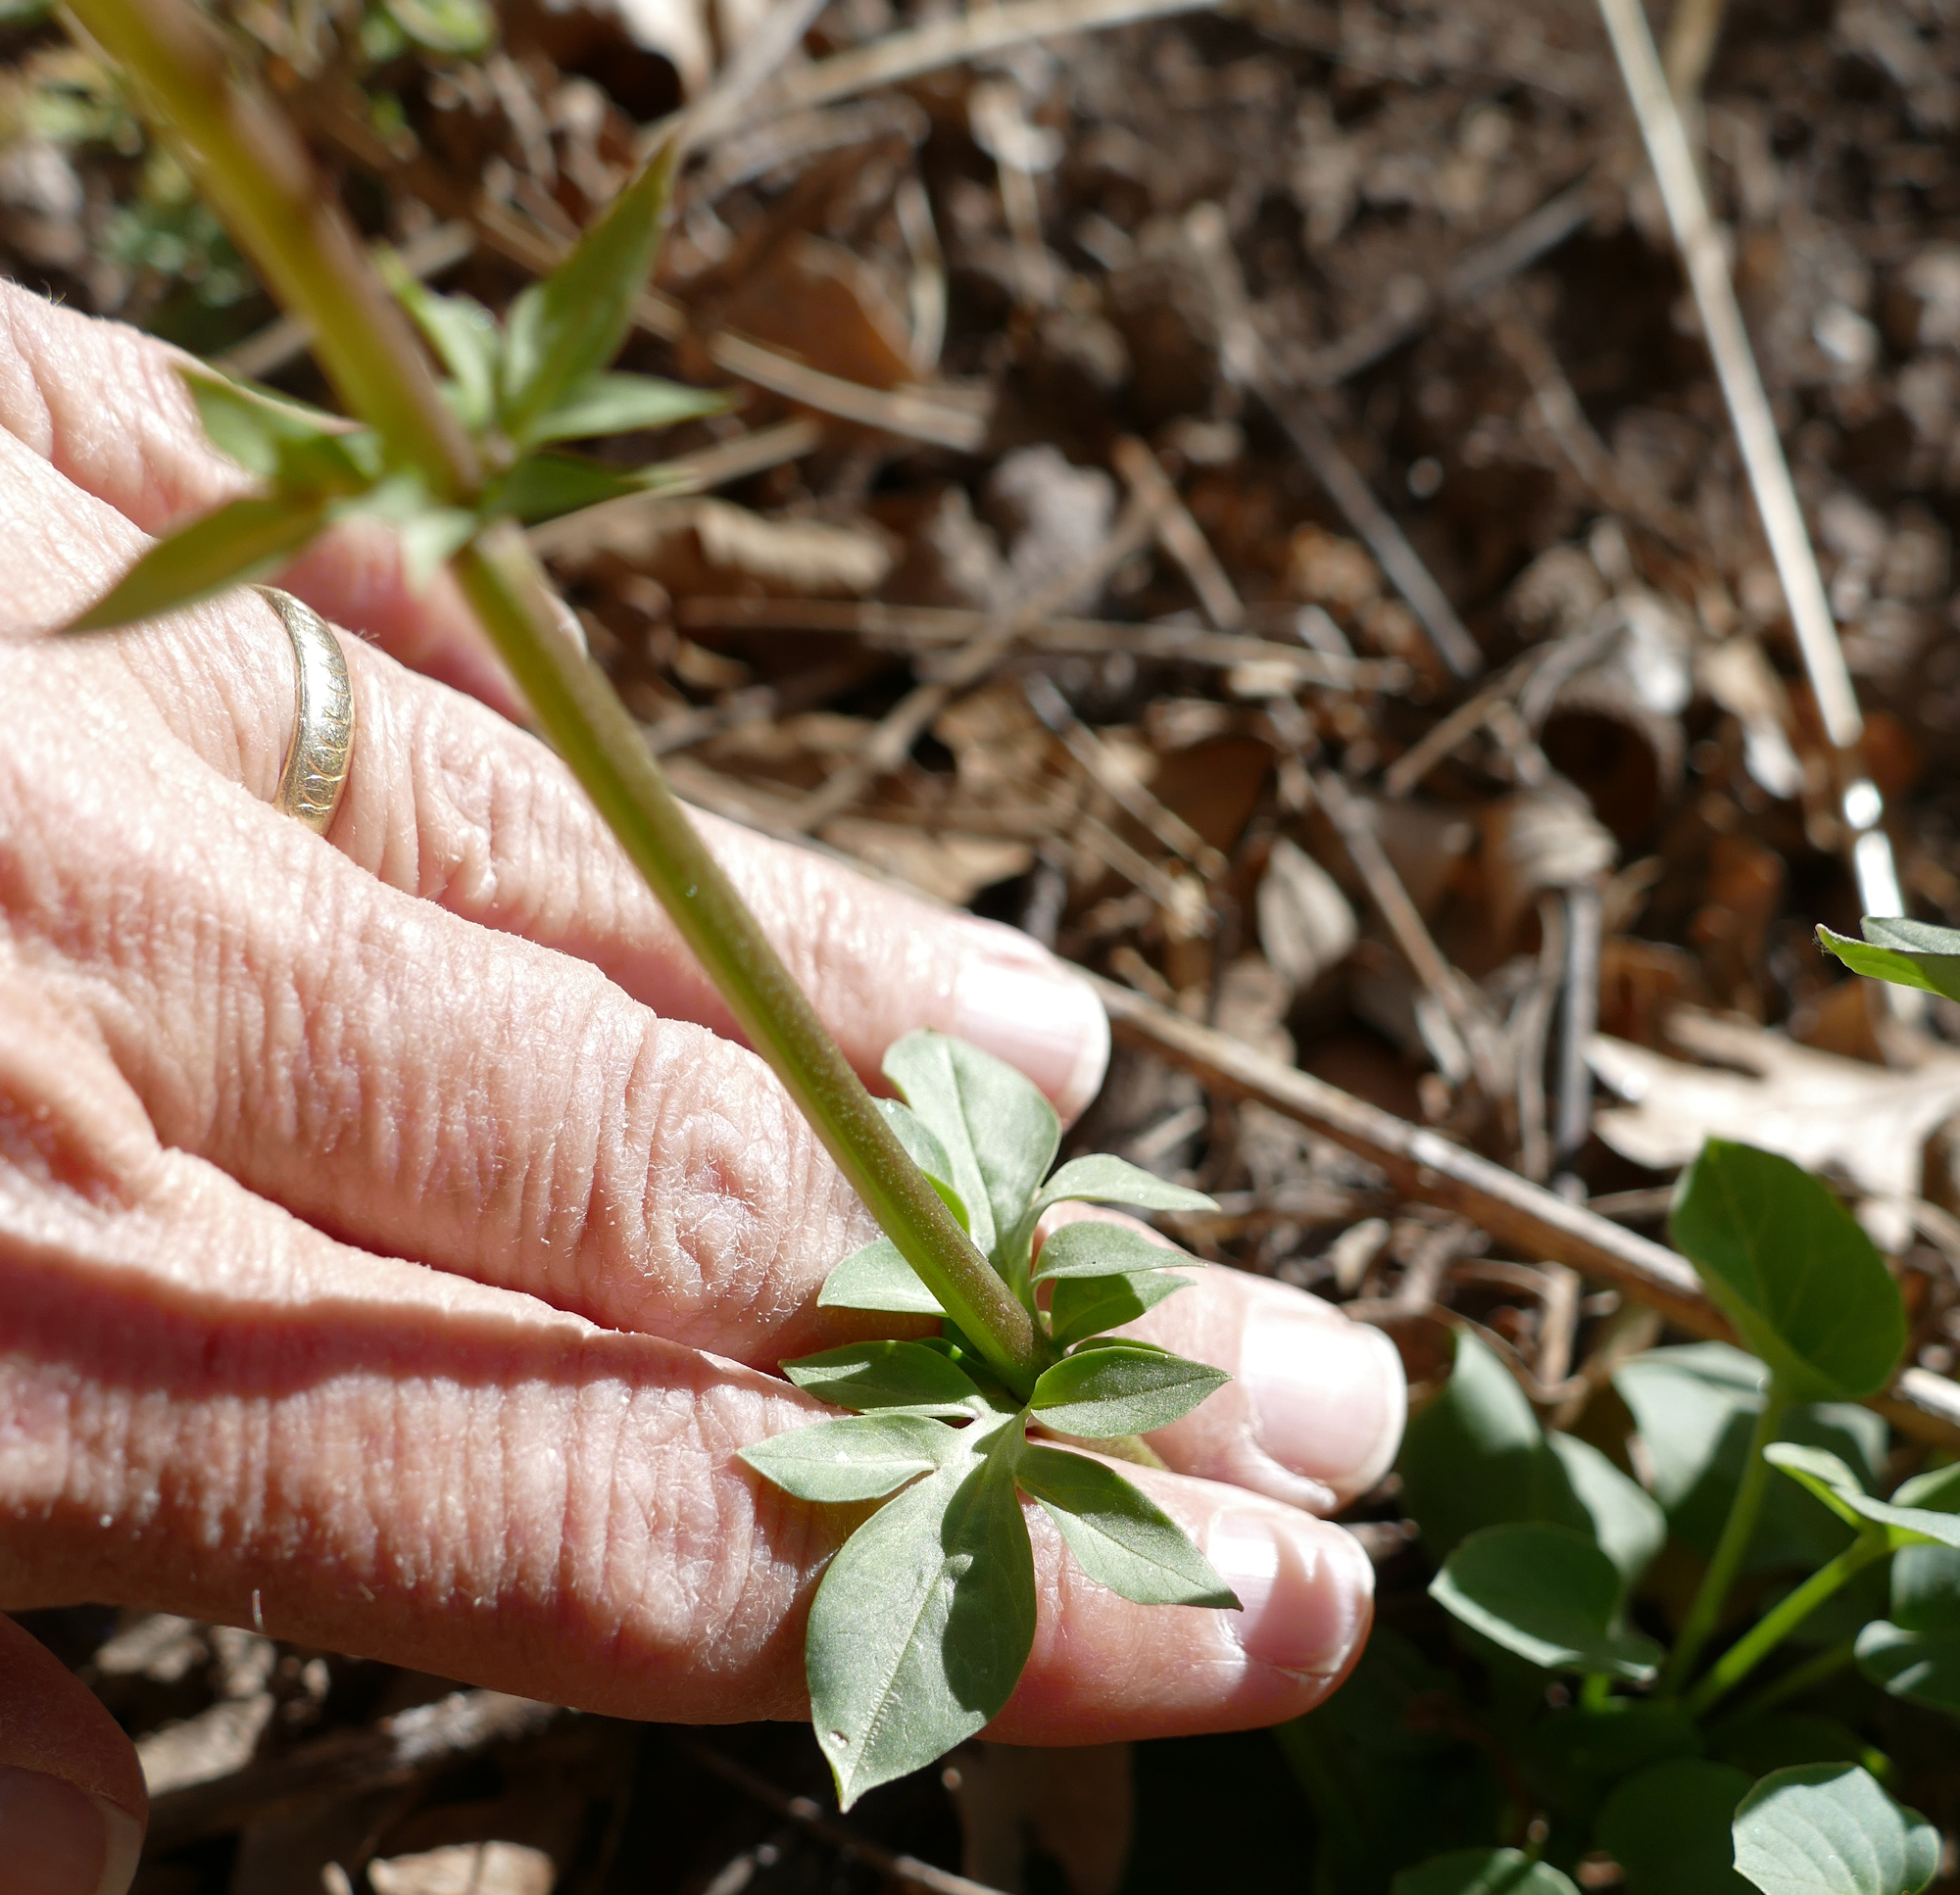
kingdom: Plantae
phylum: Tracheophyta
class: Magnoliopsida
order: Dipsacales
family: Caprifoliaceae
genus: Valeriana
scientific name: Valeriana arizonica
